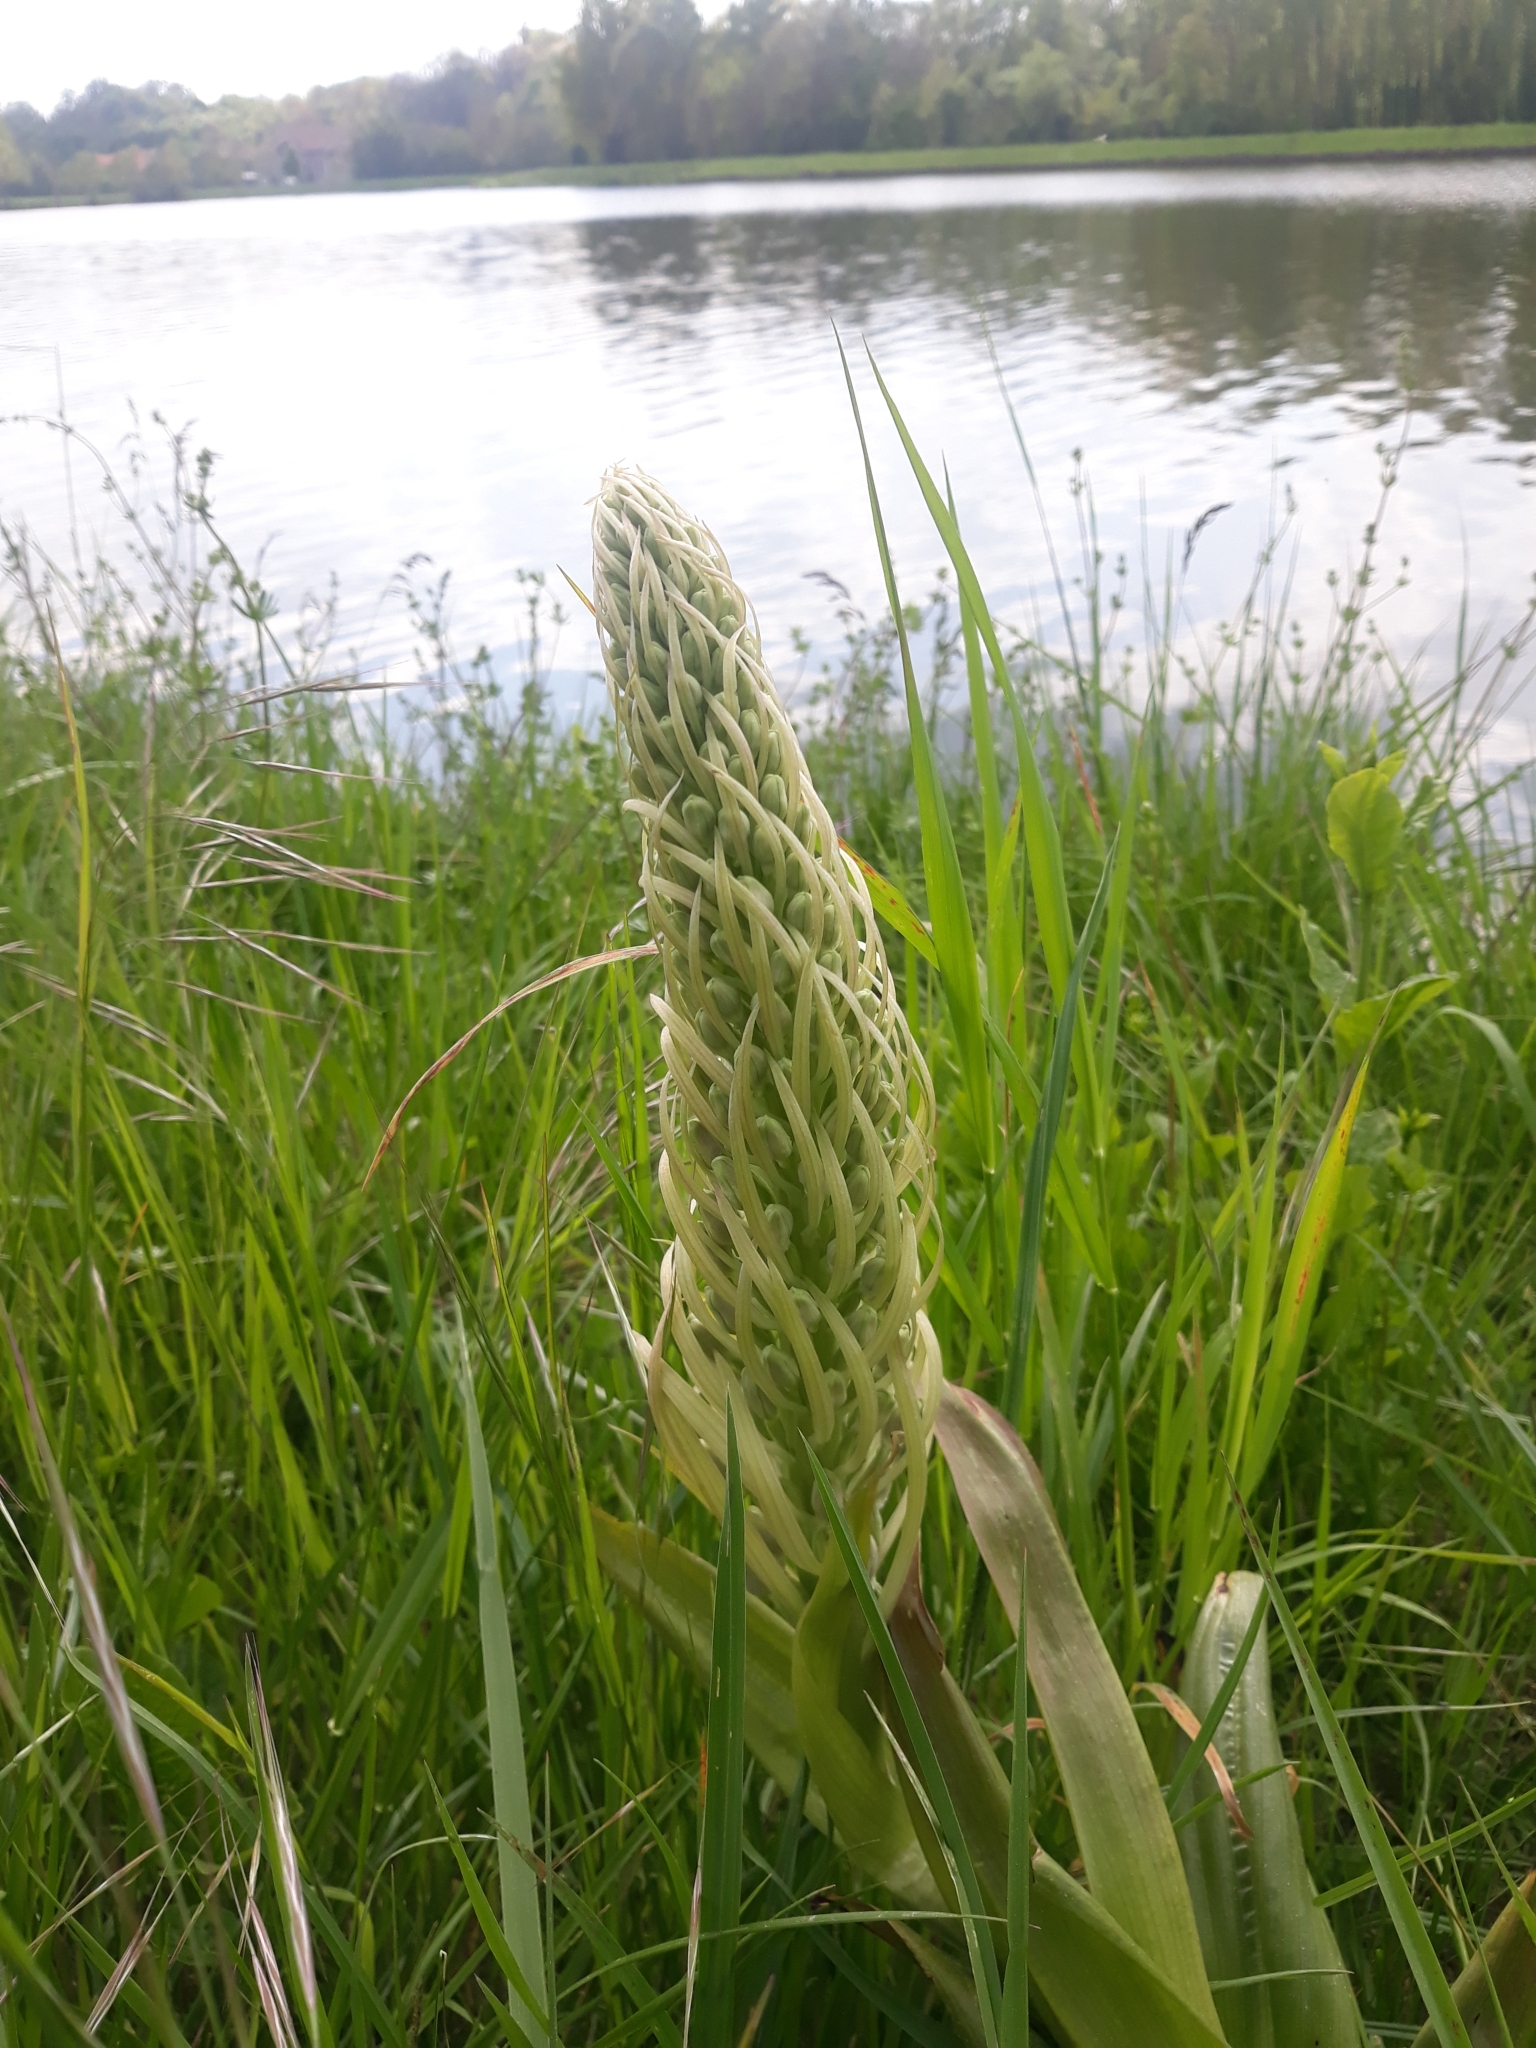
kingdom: Plantae
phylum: Tracheophyta
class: Liliopsida
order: Asparagales
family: Orchidaceae
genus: Himantoglossum
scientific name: Himantoglossum hircinum
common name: Lizard orchid
